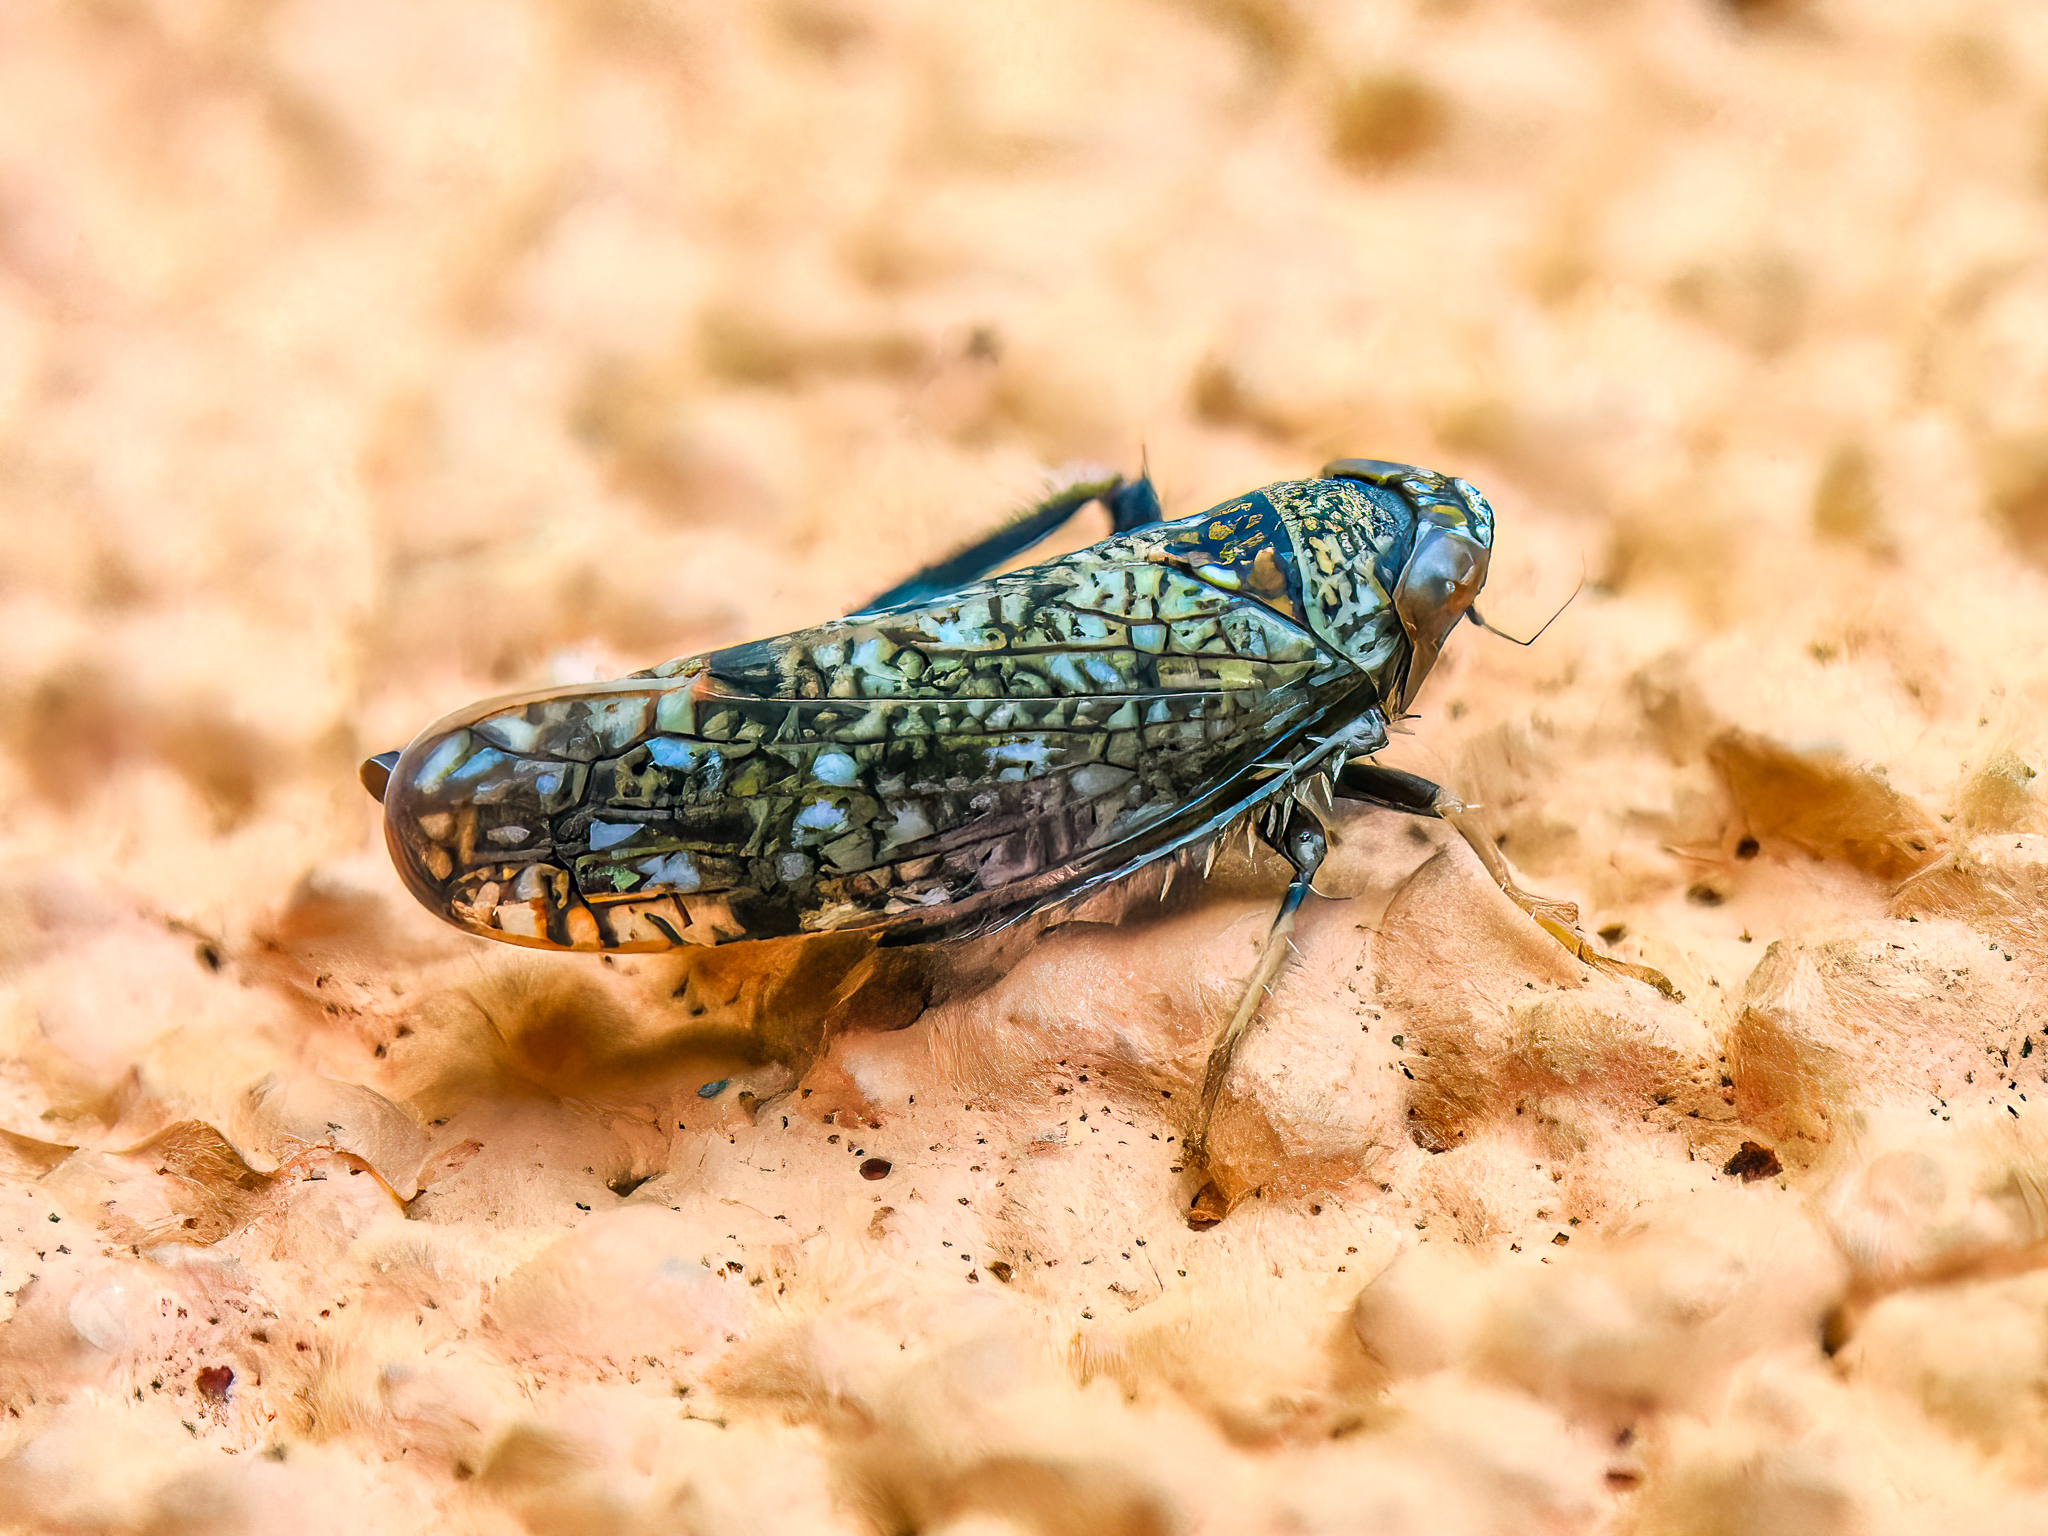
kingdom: Animalia
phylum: Arthropoda
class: Insecta
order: Hemiptera
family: Cicadellidae
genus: Orientus
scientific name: Orientus ishidae
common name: Japanese leafhopper
